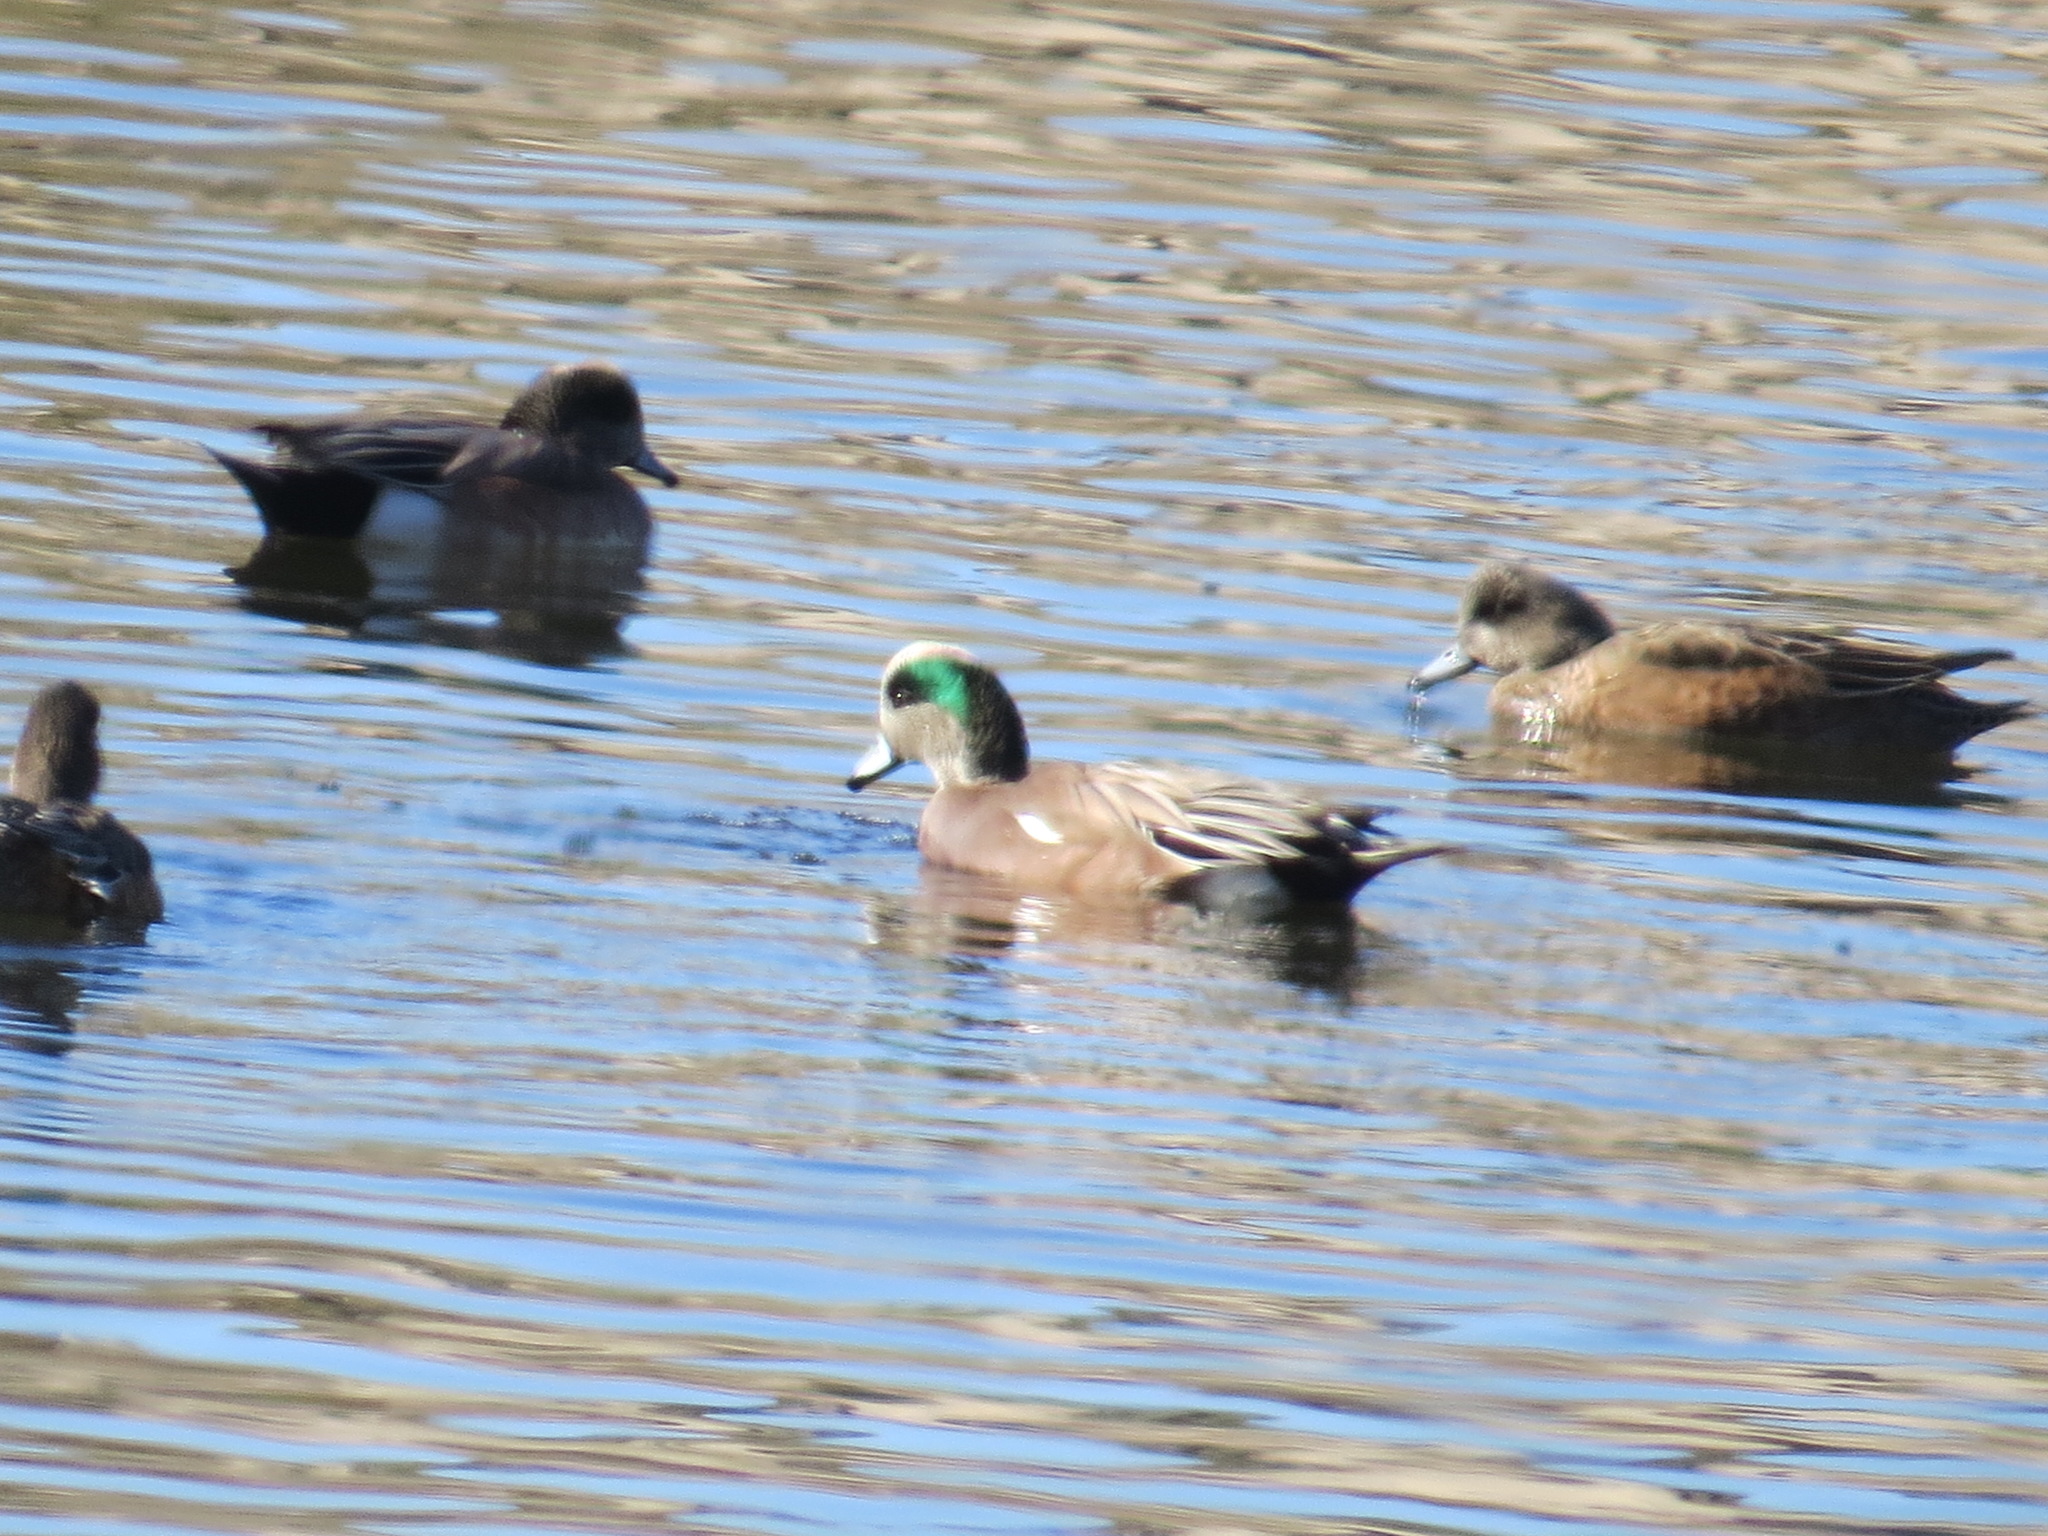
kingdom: Animalia
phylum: Chordata
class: Aves
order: Anseriformes
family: Anatidae
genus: Mareca
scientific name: Mareca americana
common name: American wigeon
